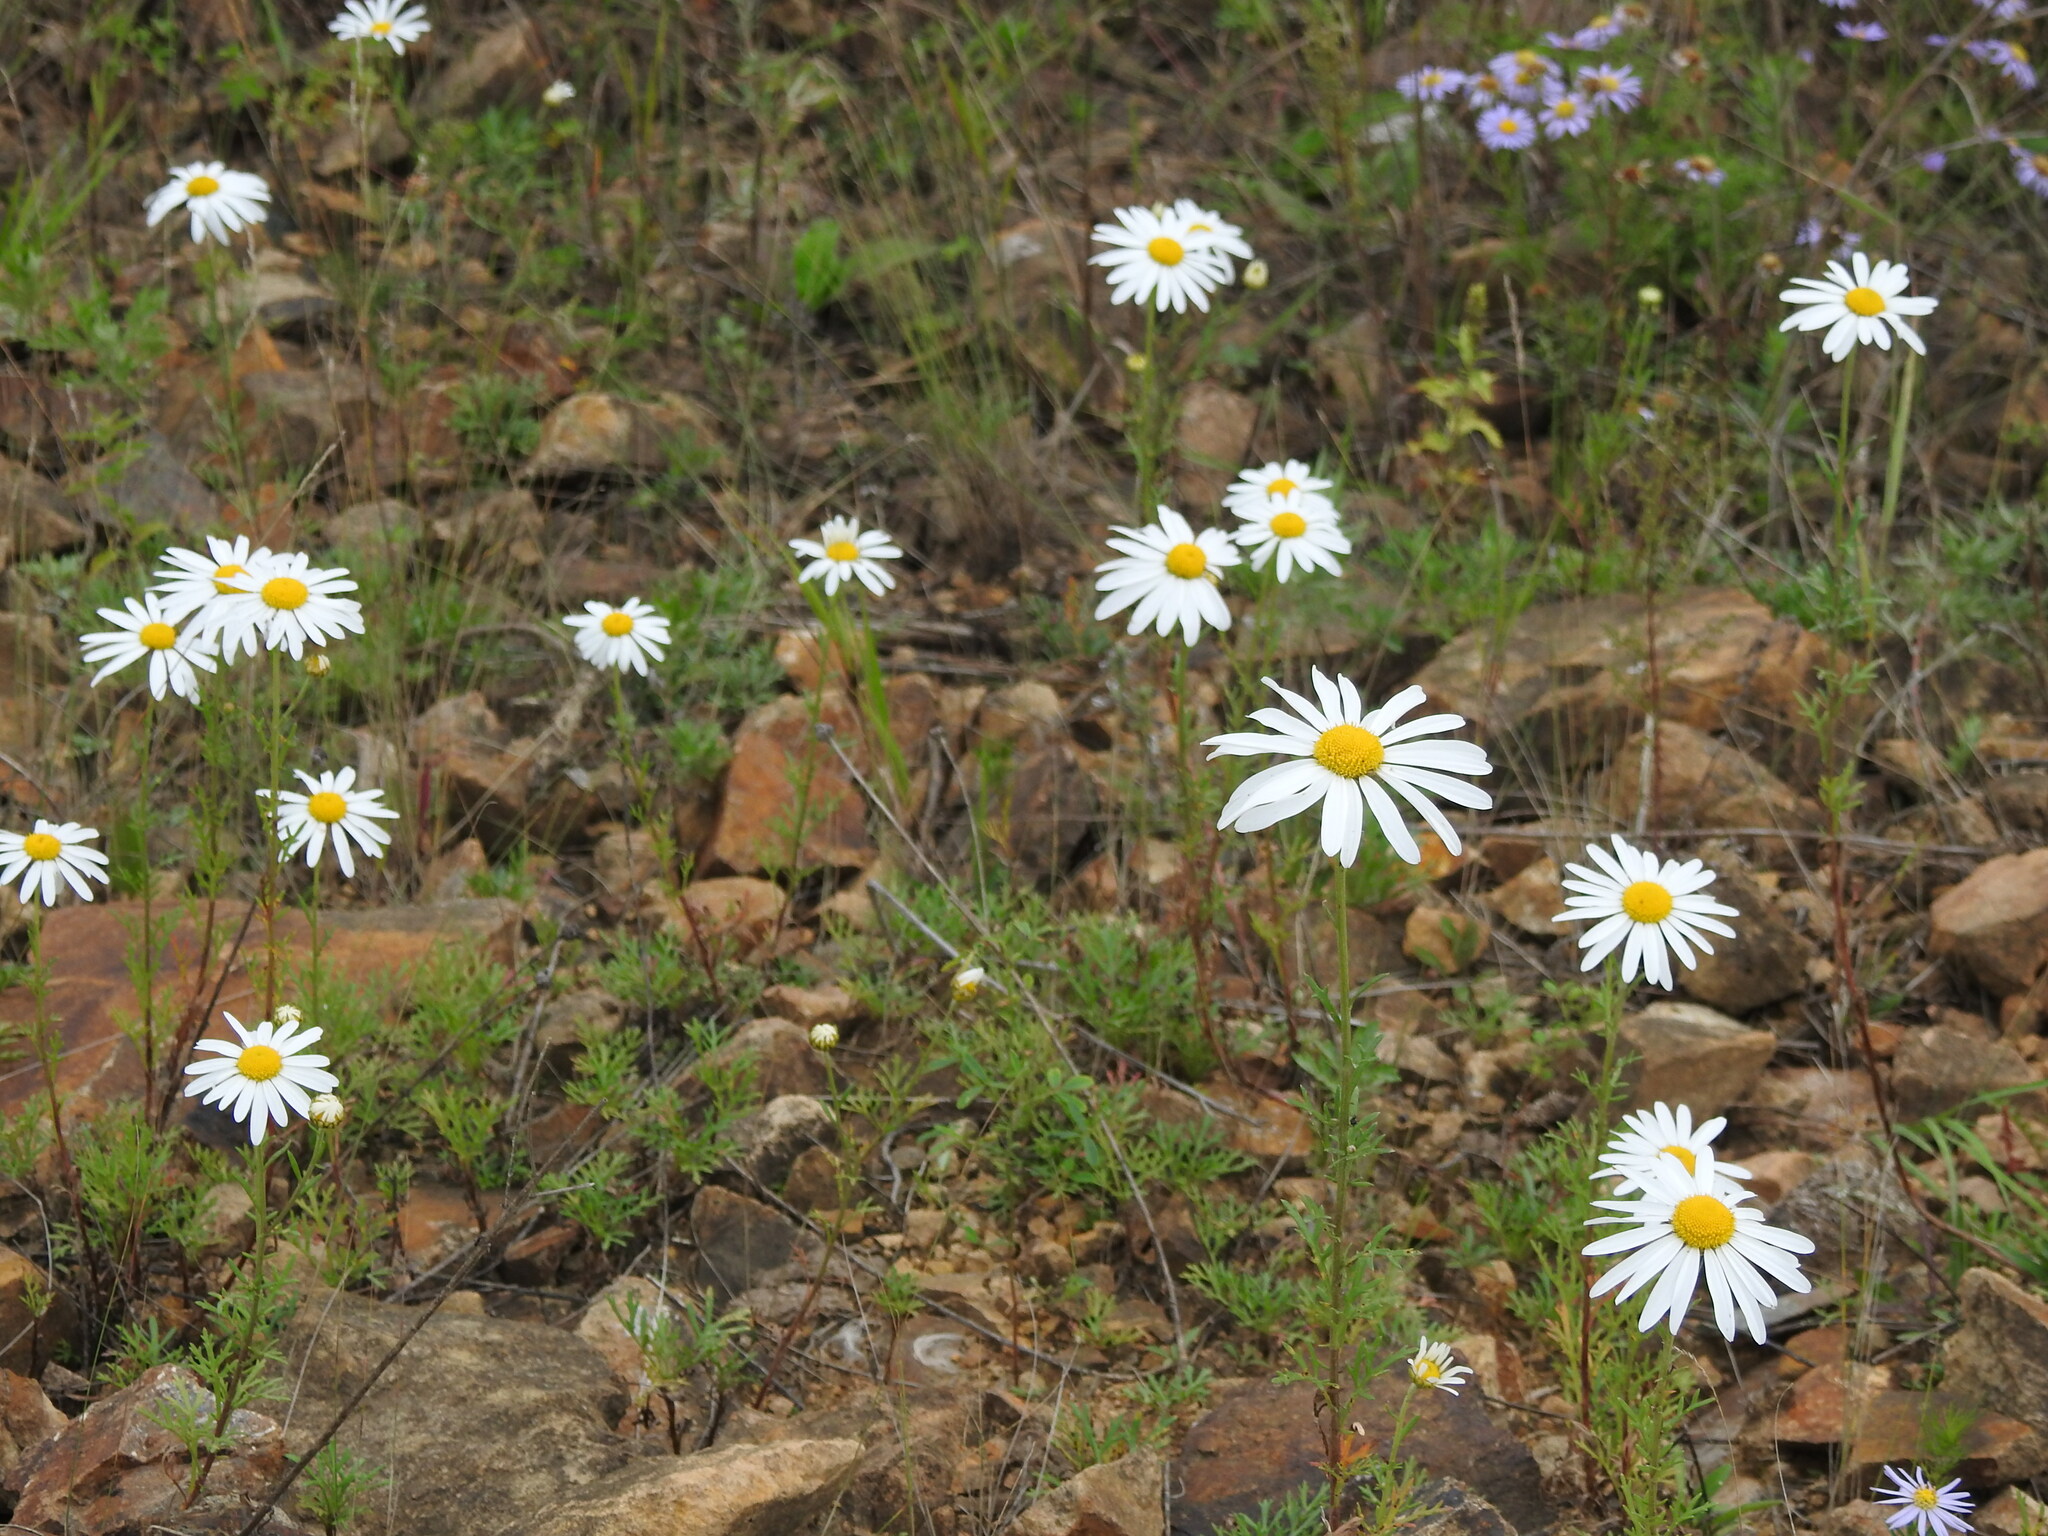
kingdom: Plantae
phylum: Tracheophyta
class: Magnoliopsida
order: Asterales
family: Asteraceae
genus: Chrysanthemum
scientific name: Chrysanthemum zawadzkii
